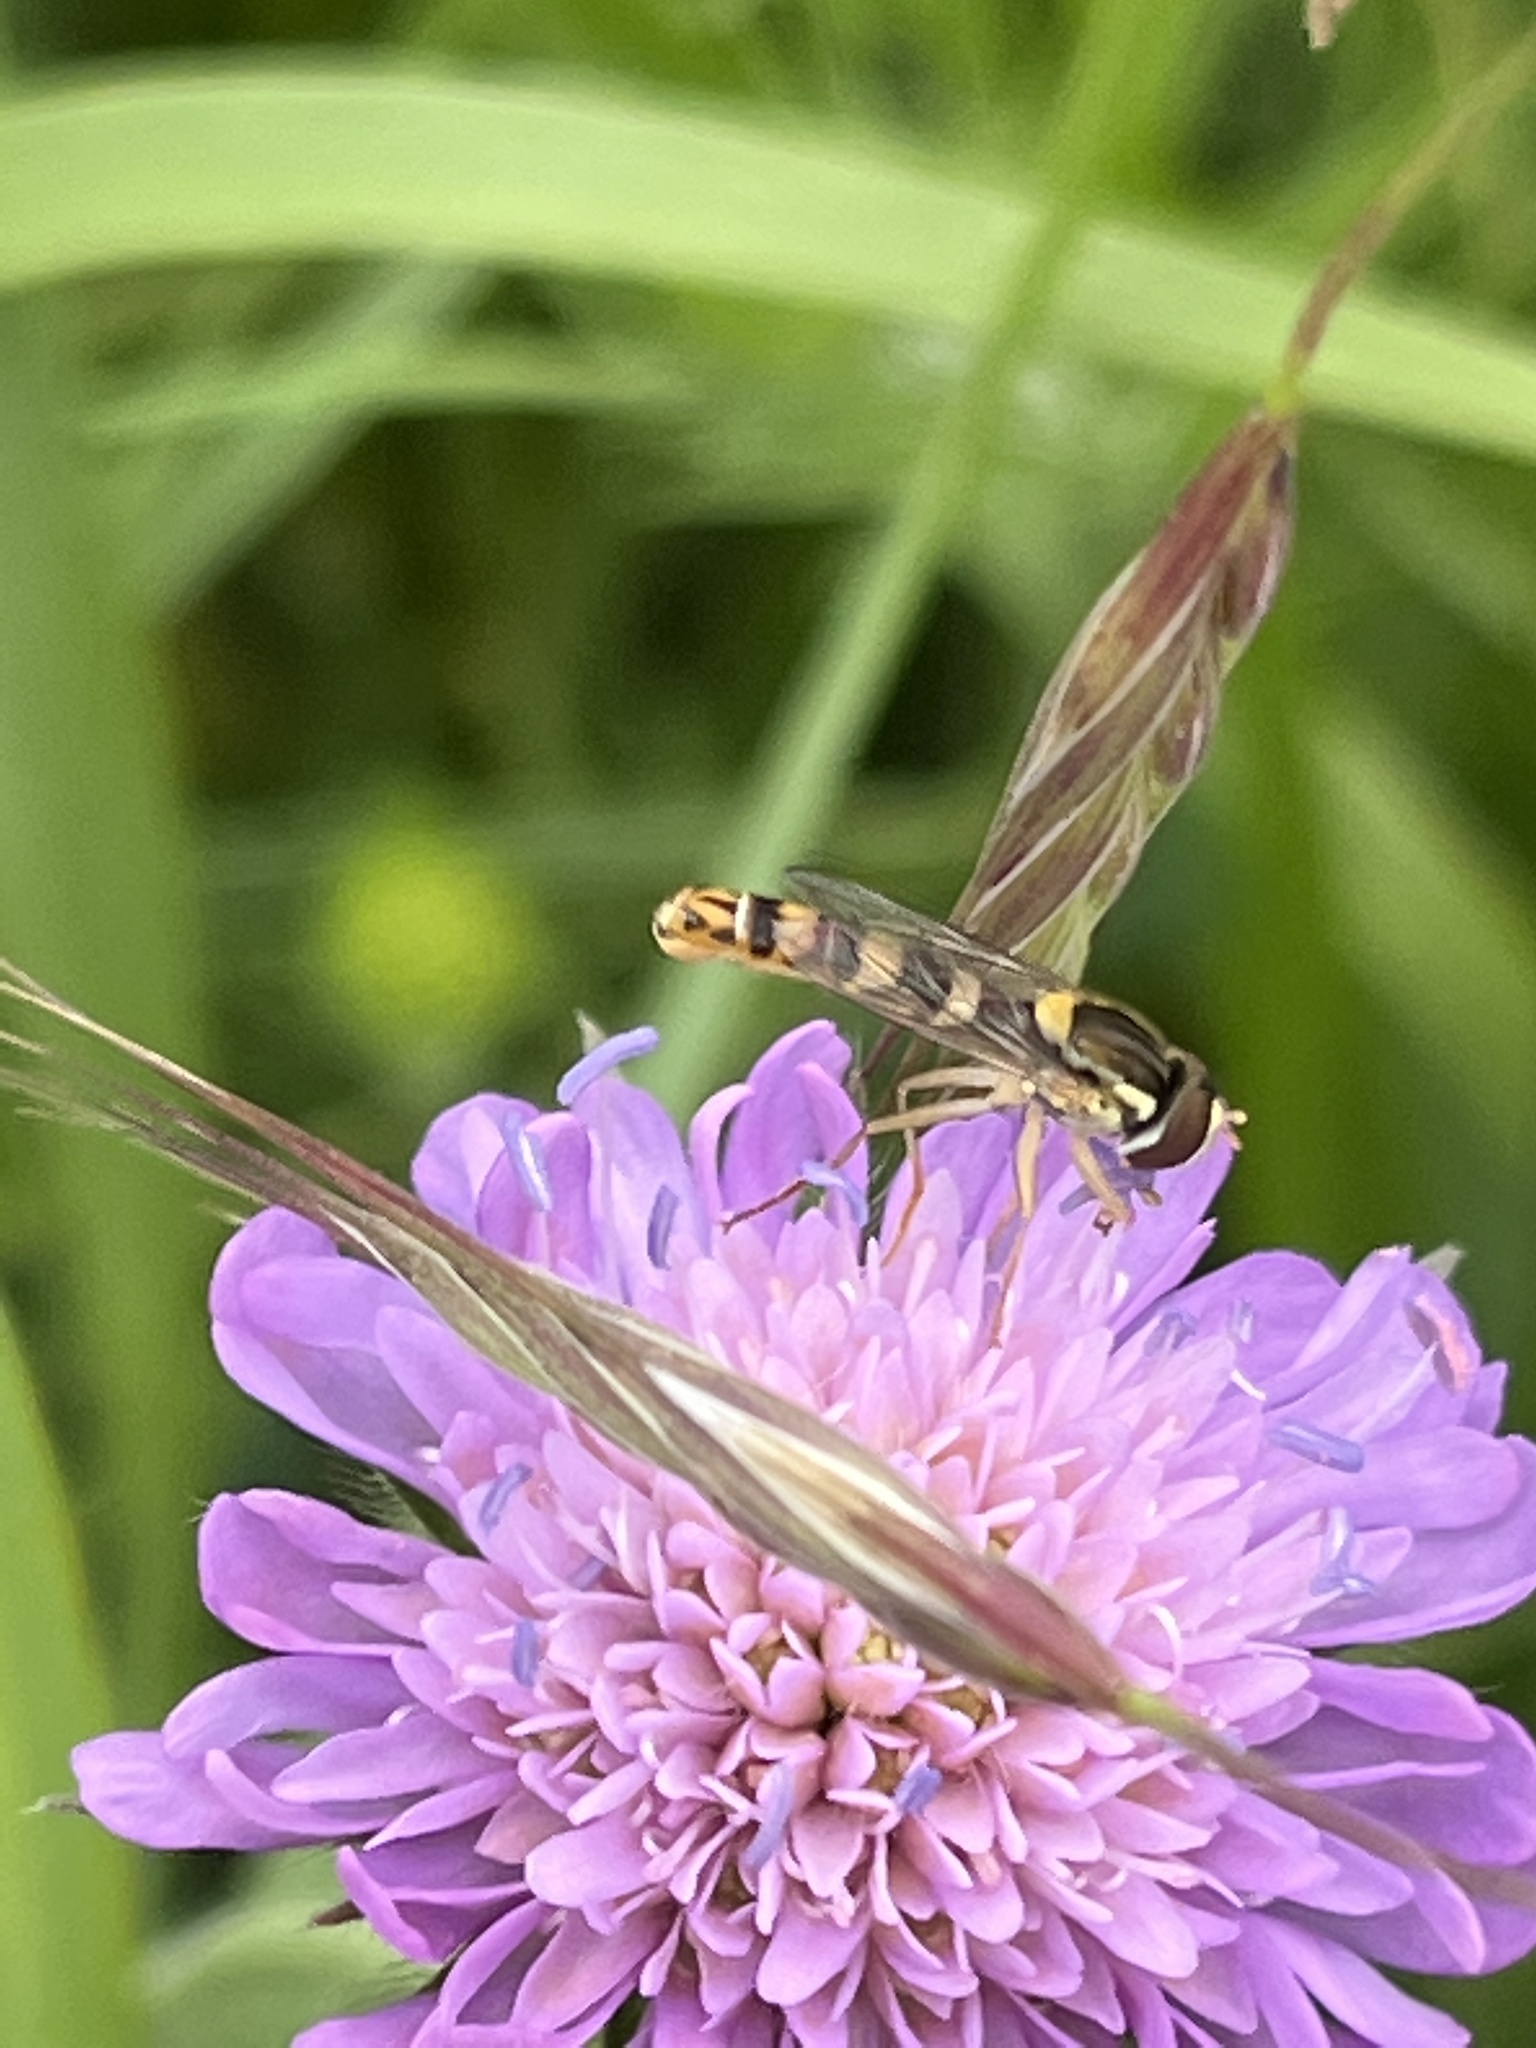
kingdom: Animalia
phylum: Arthropoda
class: Insecta
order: Diptera
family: Syrphidae
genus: Sphaerophoria
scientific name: Sphaerophoria scripta
